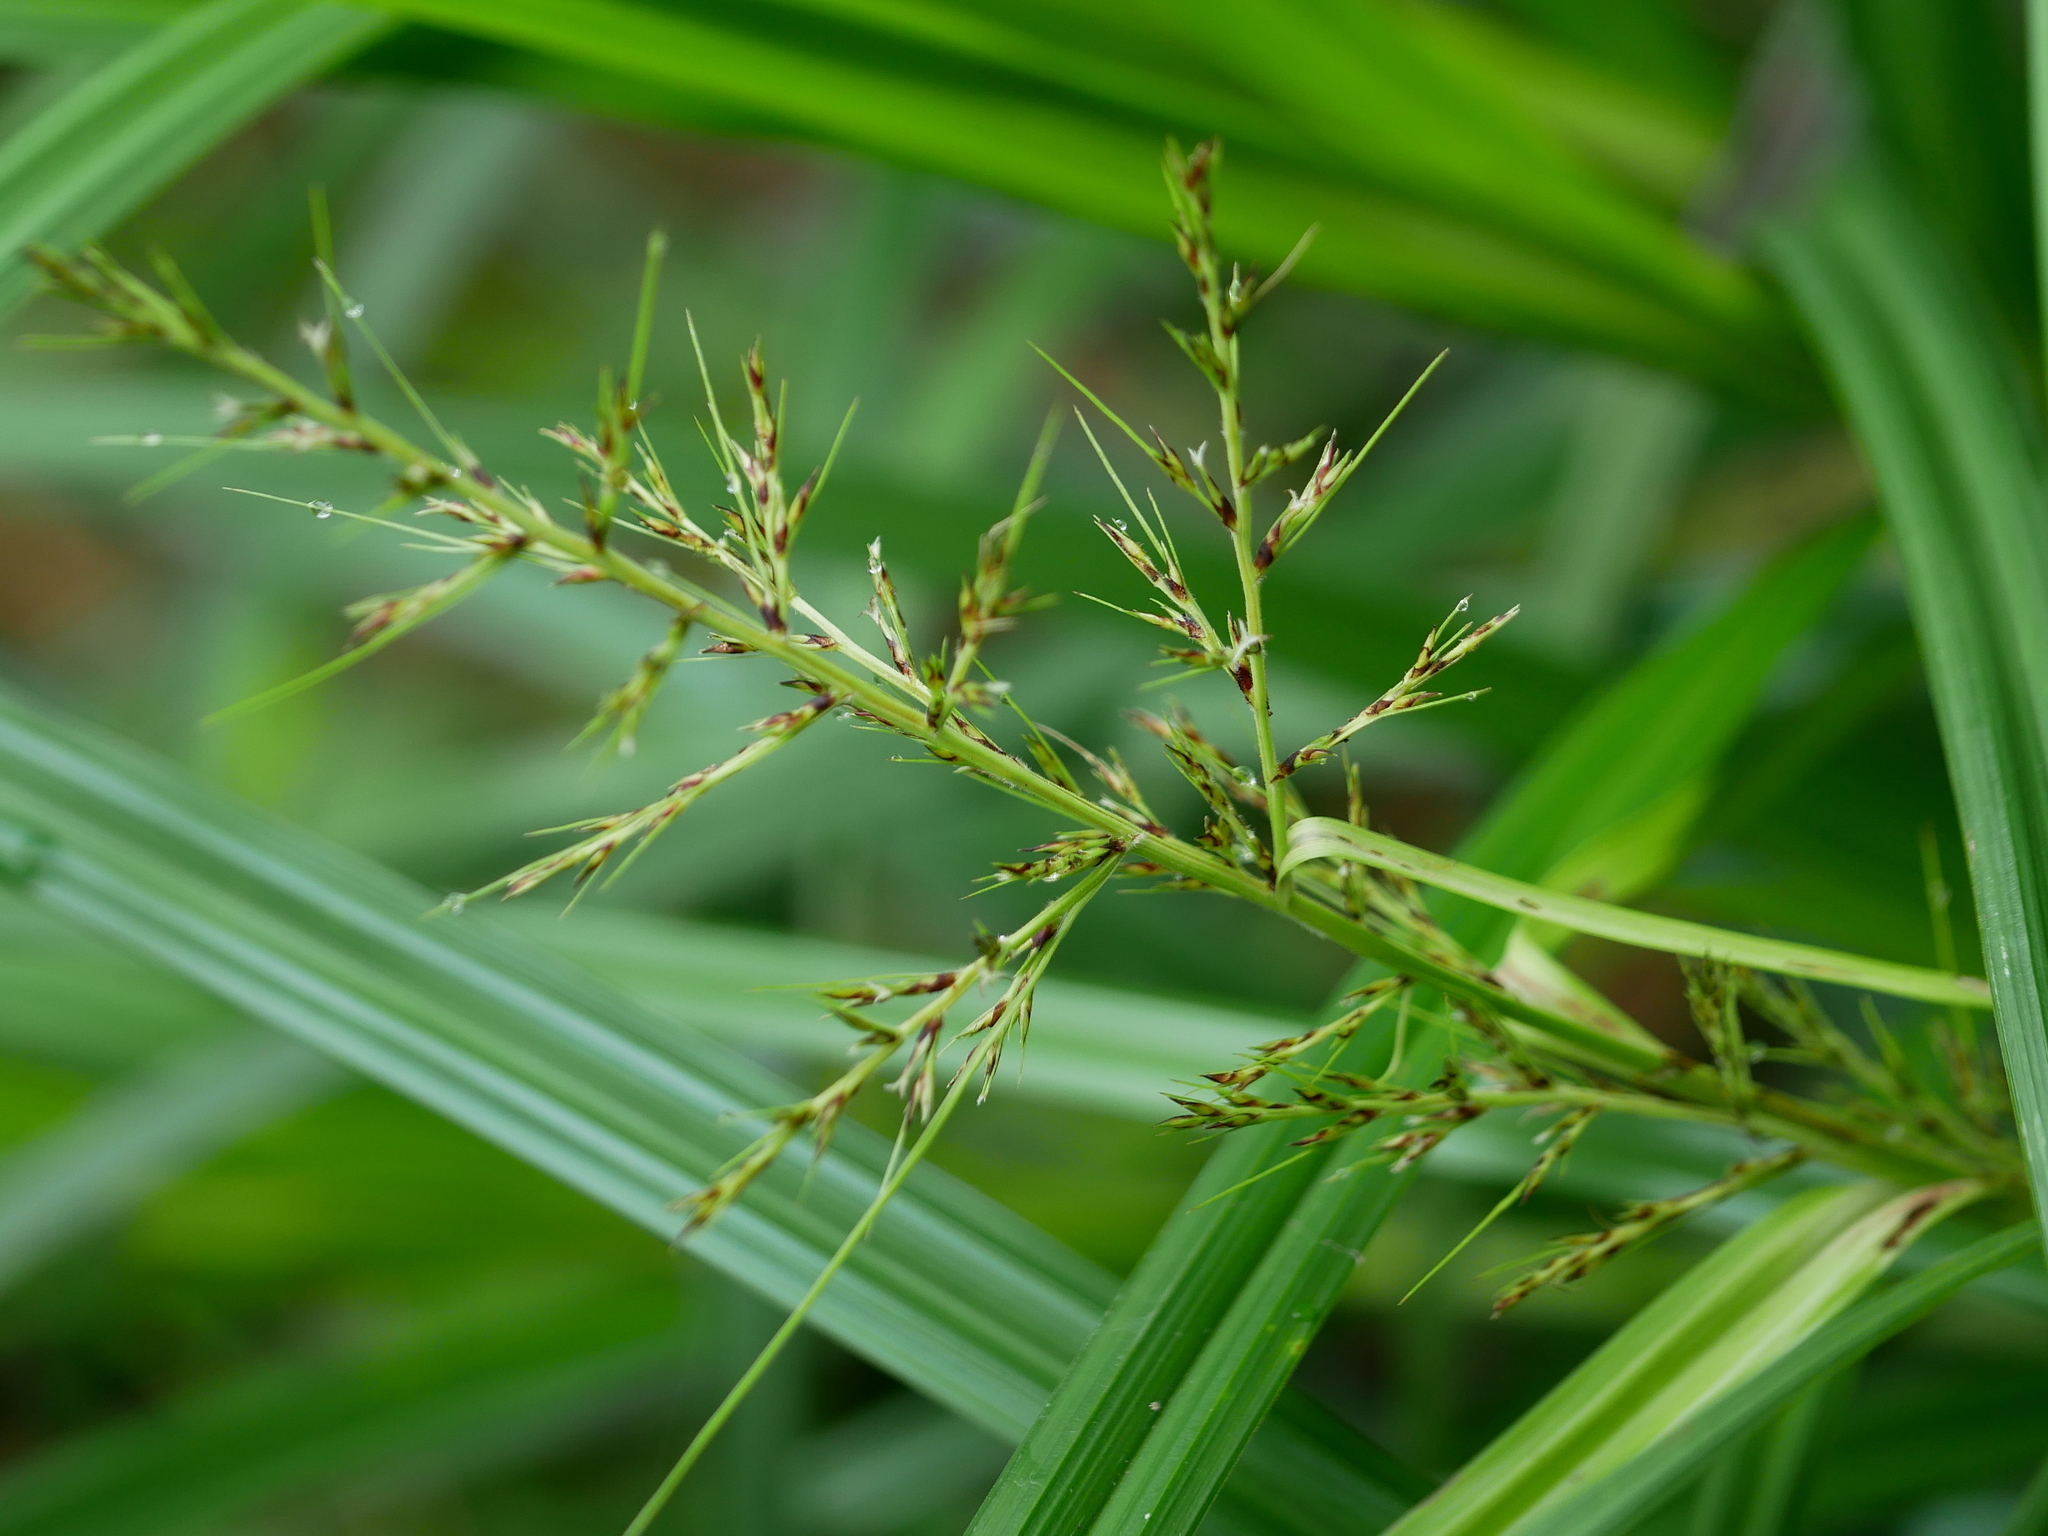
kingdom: Plantae
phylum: Tracheophyta
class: Liliopsida
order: Poales
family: Cyperaceae
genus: Scleria
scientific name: Scleria terrestris
